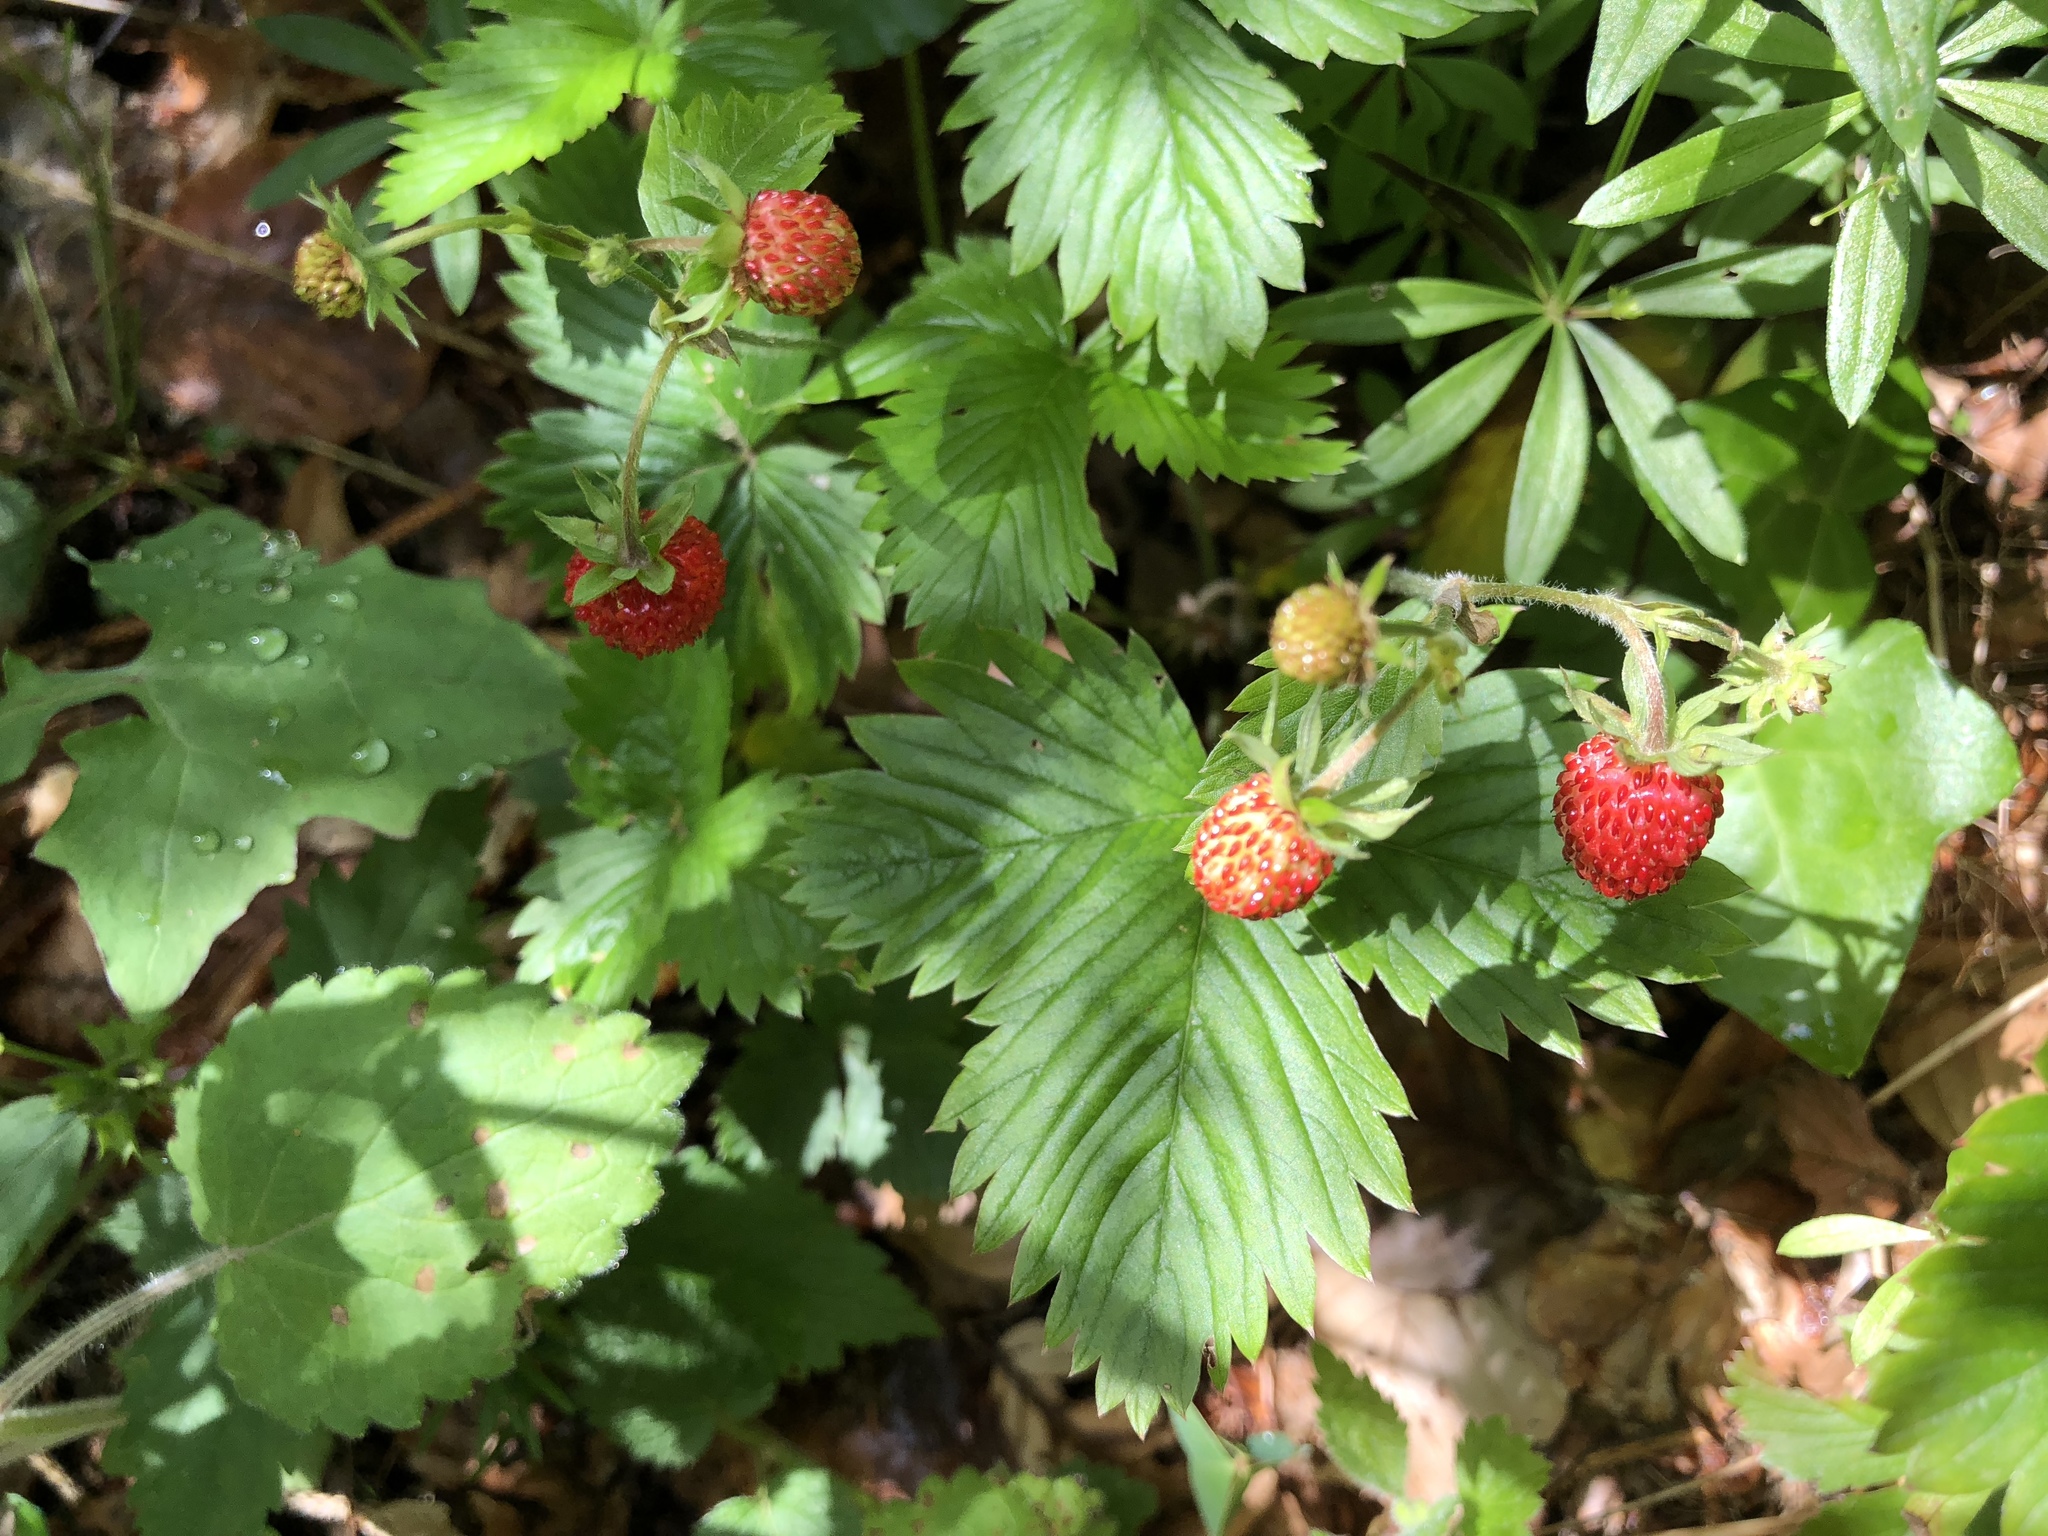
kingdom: Plantae
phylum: Tracheophyta
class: Magnoliopsida
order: Rosales
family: Rosaceae
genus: Fragaria
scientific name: Fragaria vesca
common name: Wild strawberry
